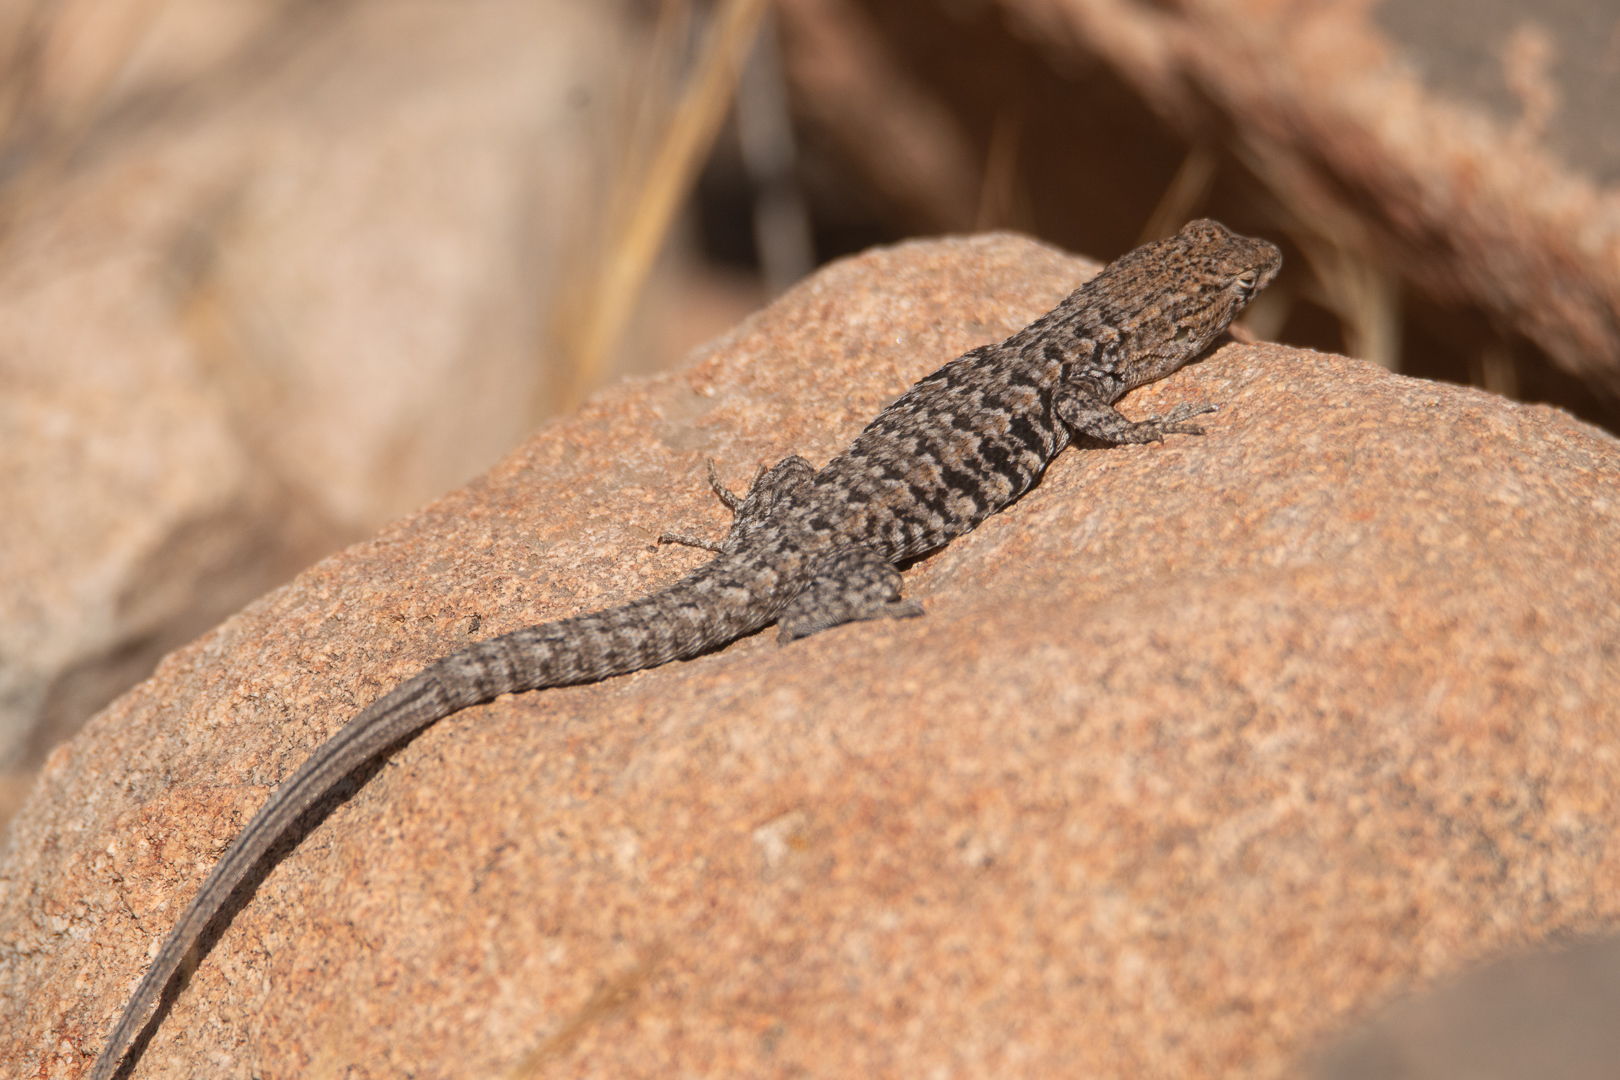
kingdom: Animalia
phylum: Chordata
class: Squamata
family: Liolaemidae
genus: Liolaemus
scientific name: Liolaemus platei
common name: Braided tree iguana
